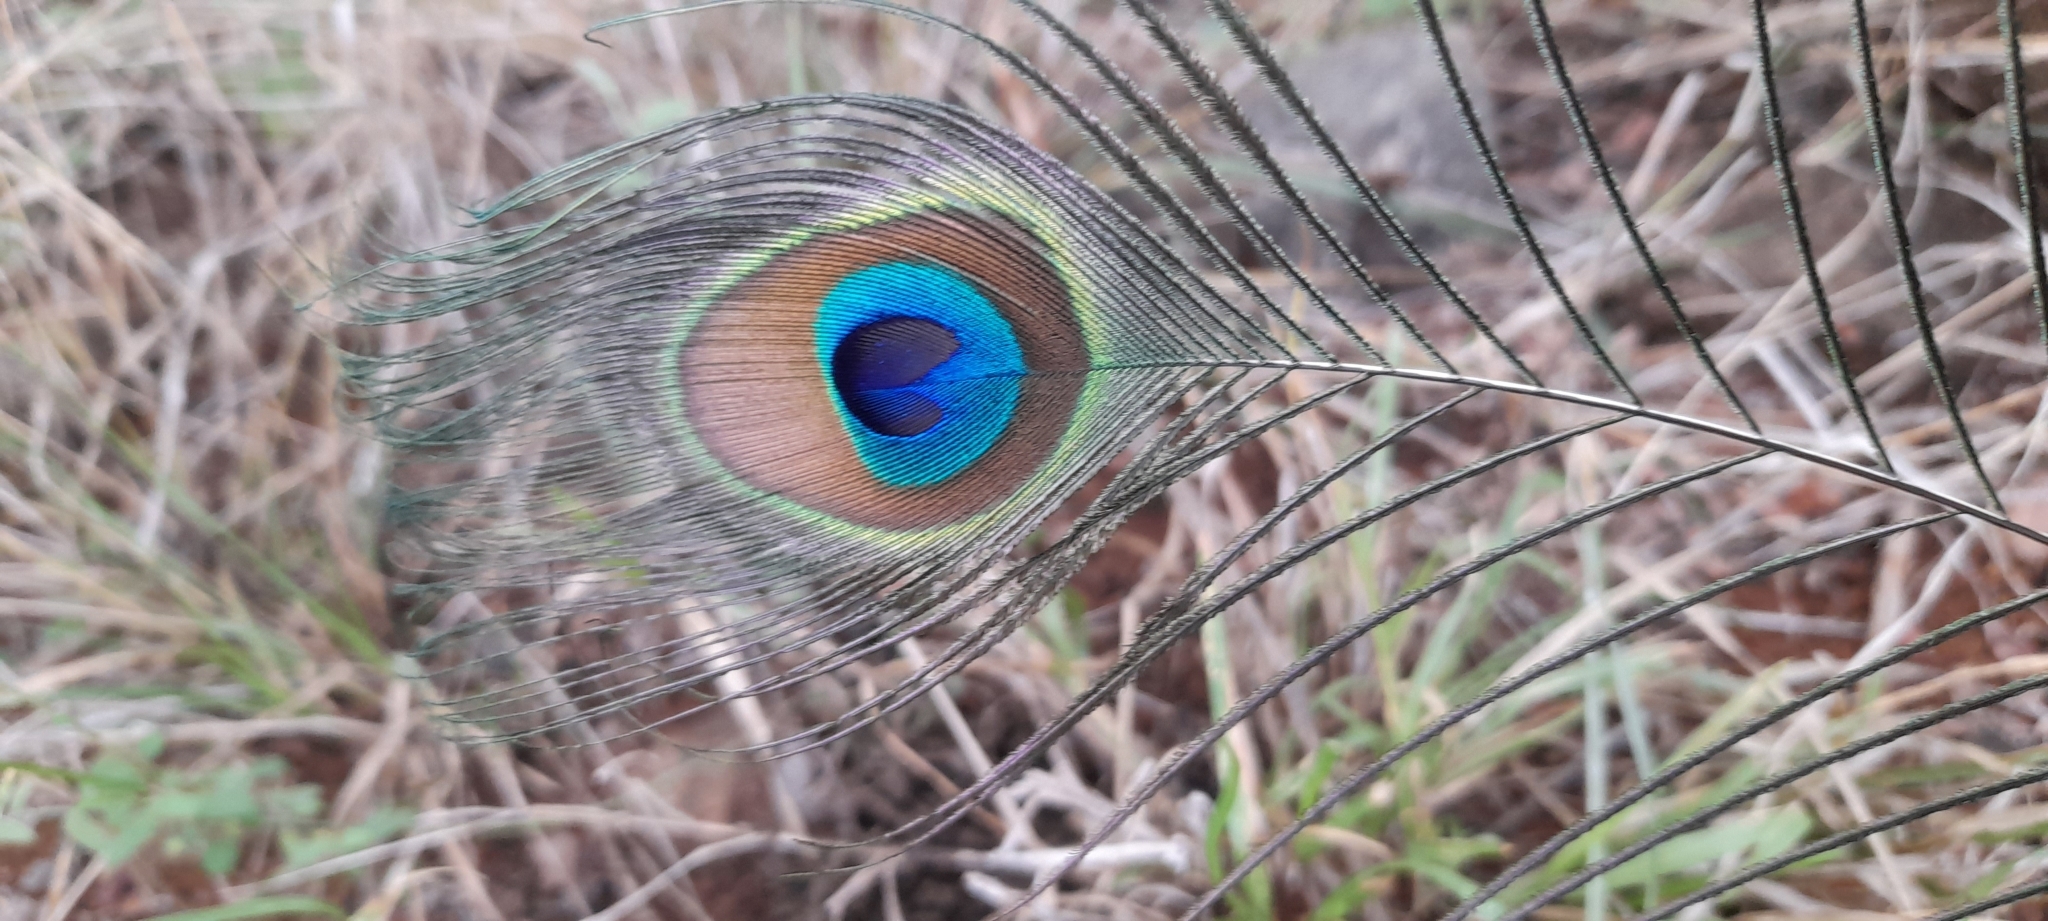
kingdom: Animalia
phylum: Chordata
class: Aves
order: Galliformes
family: Phasianidae
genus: Pavo
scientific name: Pavo cristatus
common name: Indian peafowl
